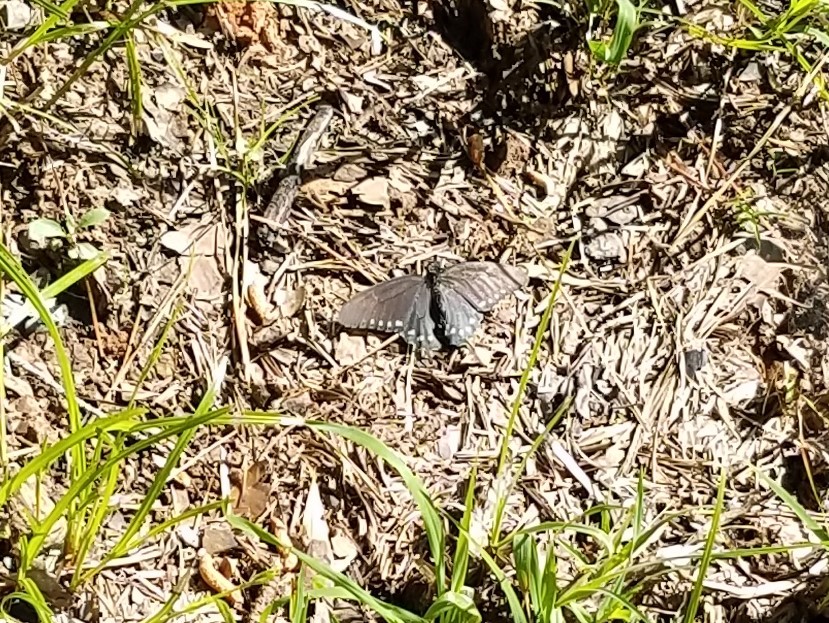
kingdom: Animalia
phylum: Arthropoda
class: Insecta
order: Lepidoptera
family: Papilionidae
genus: Battus
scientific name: Battus philenor
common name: Pipevine swallowtail
